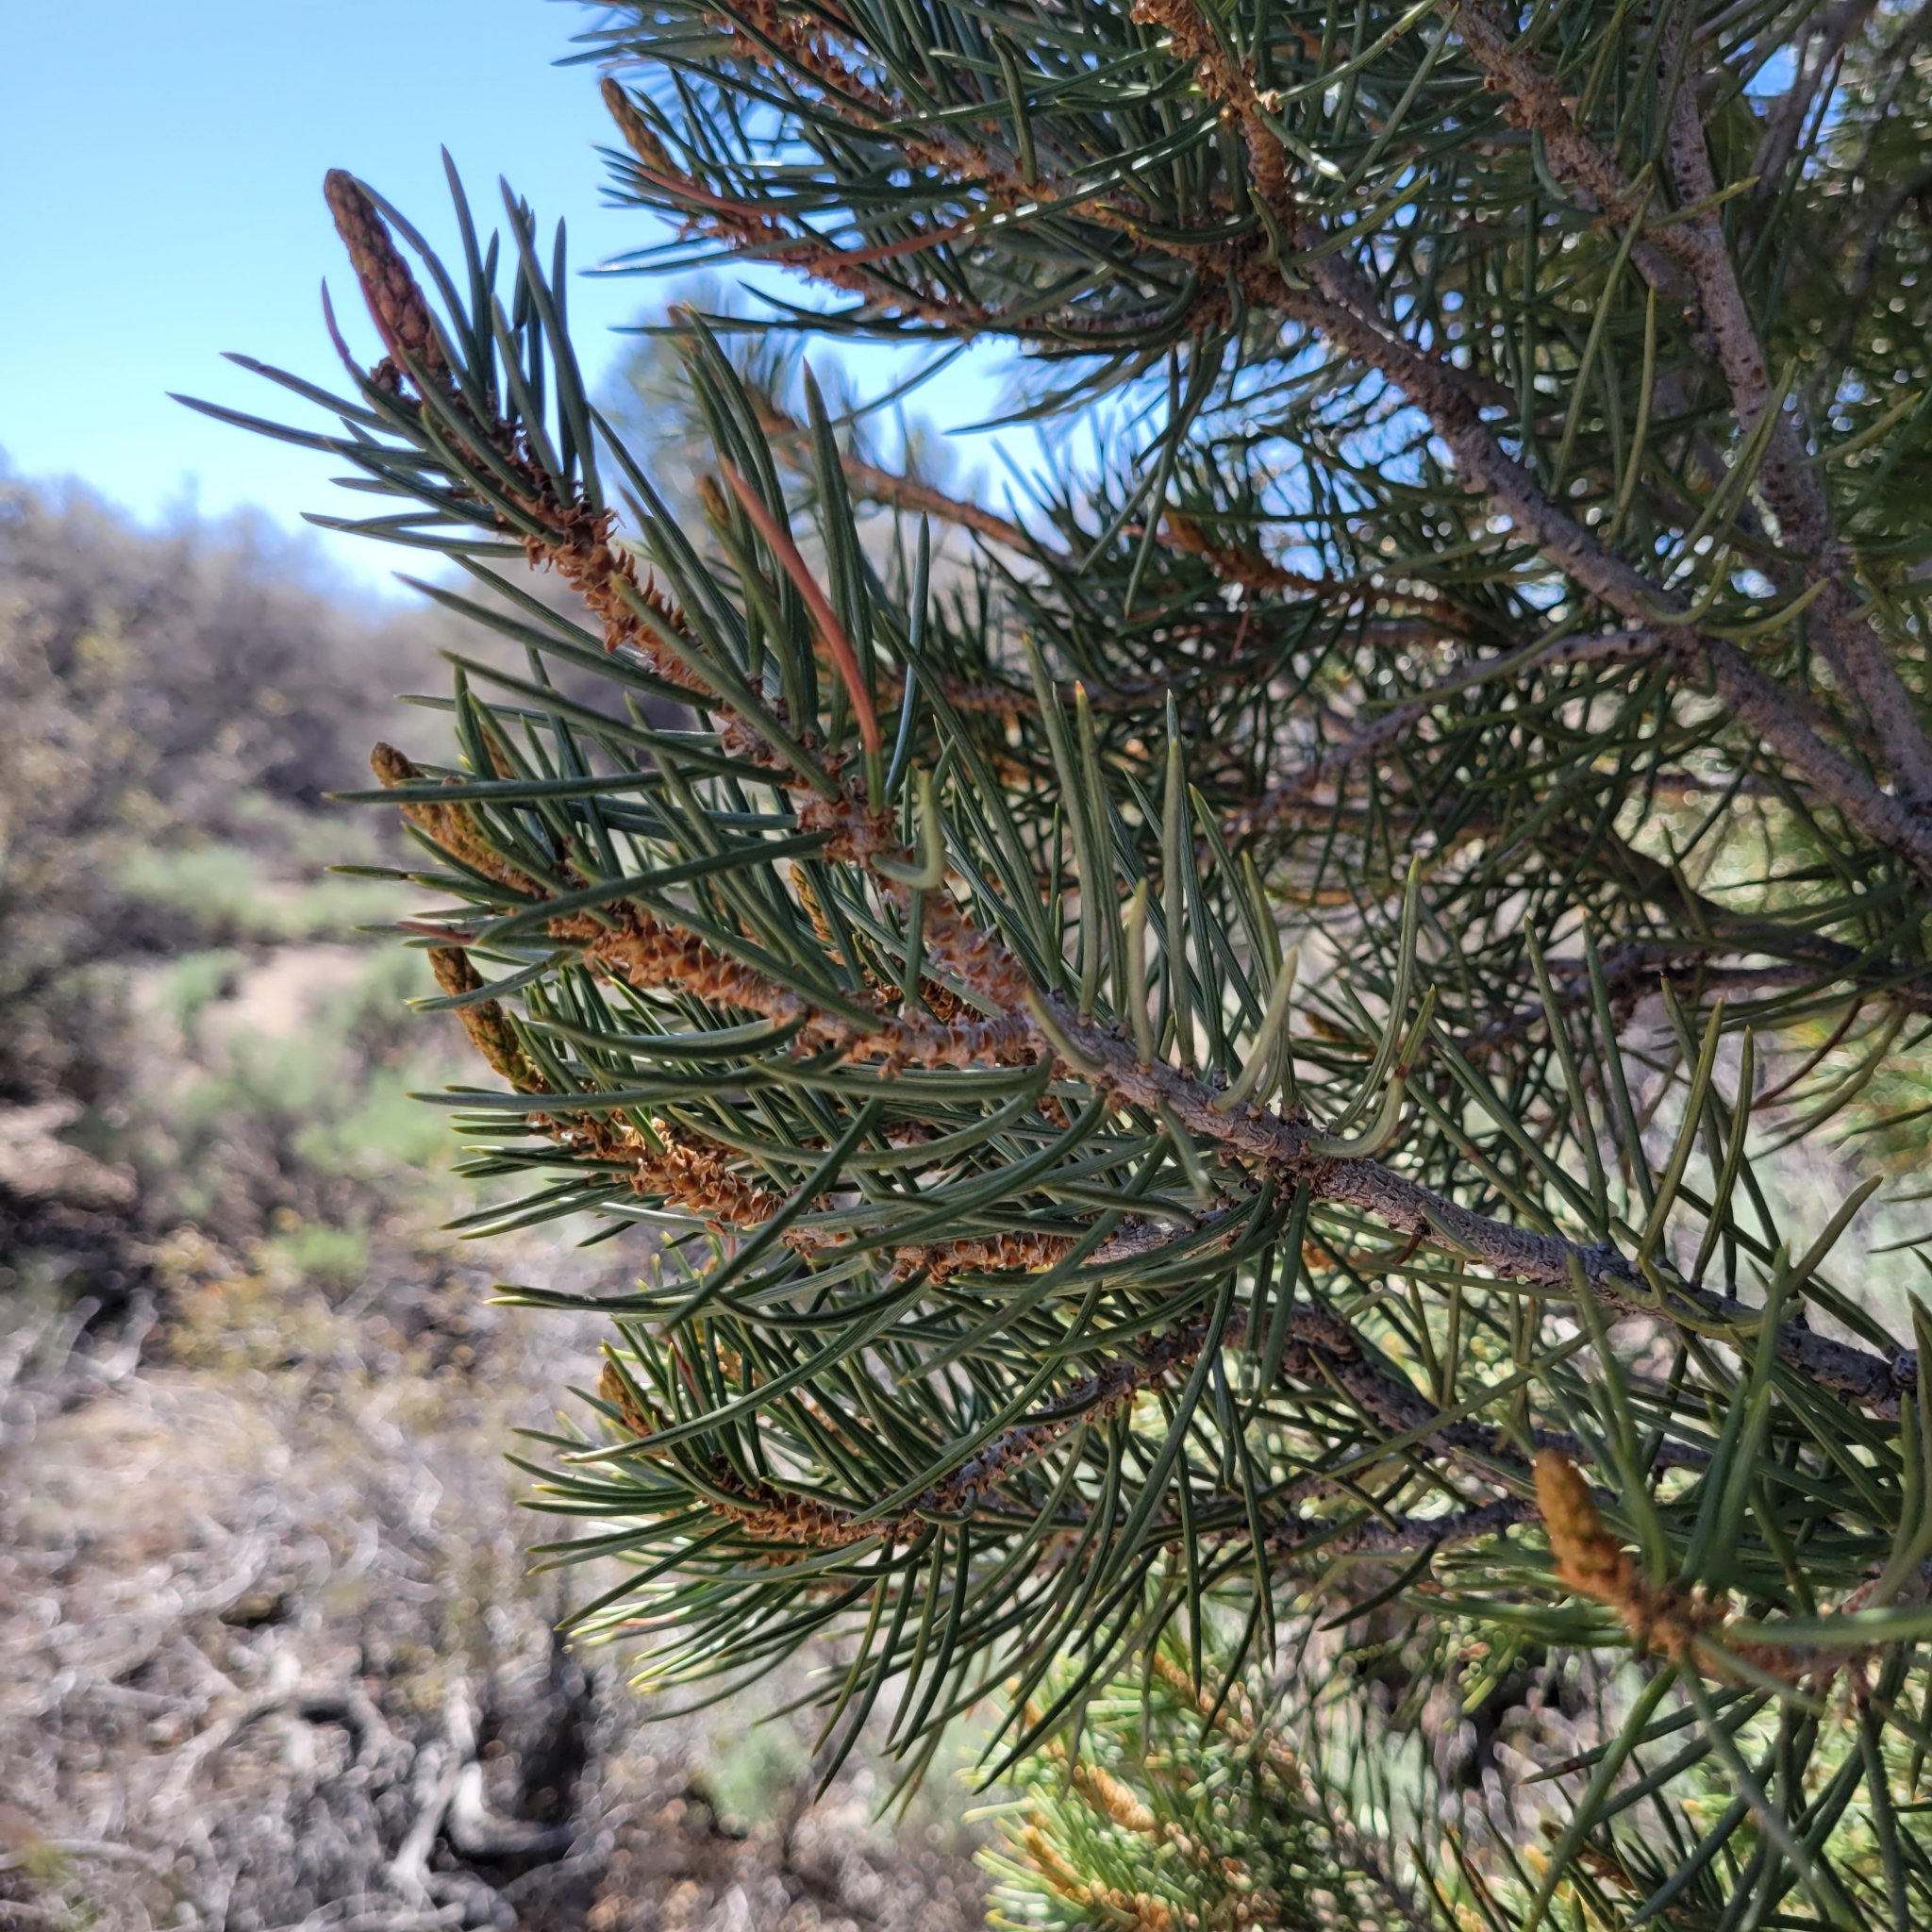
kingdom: Plantae
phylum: Tracheophyta
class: Pinopsida
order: Pinales
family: Pinaceae
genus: Pinus
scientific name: Pinus monophylla
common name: One-leaved nut pine
